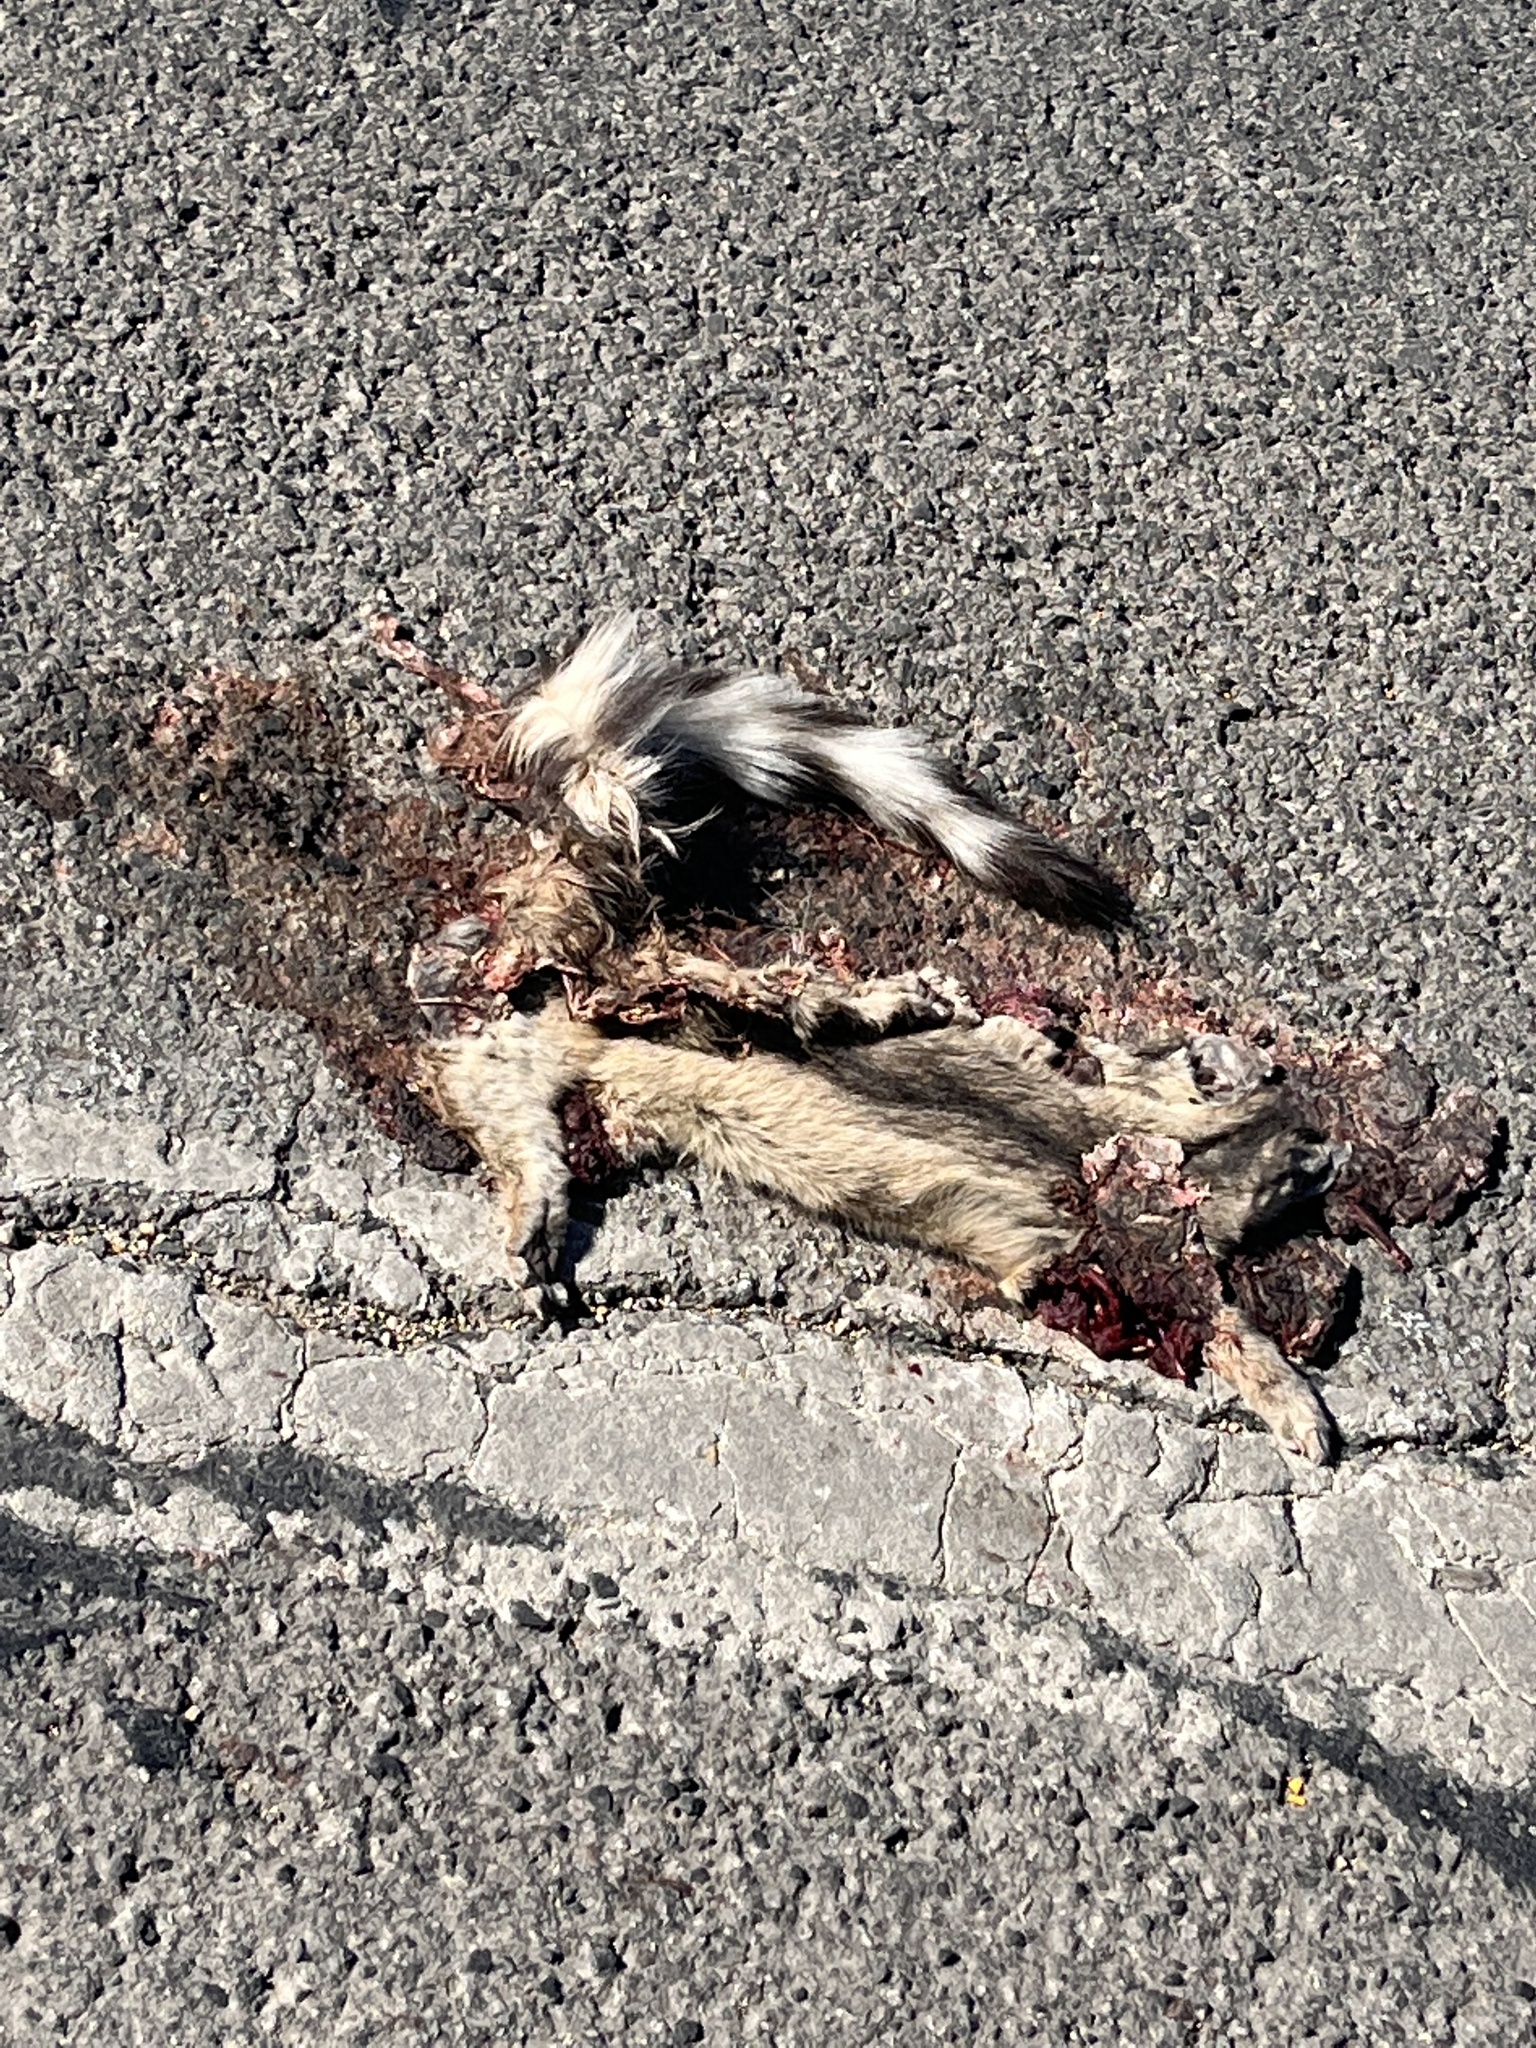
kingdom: Animalia
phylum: Chordata
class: Mammalia
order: Carnivora
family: Procyonidae
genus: Bassariscus
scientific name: Bassariscus astutus
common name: Ringtail
